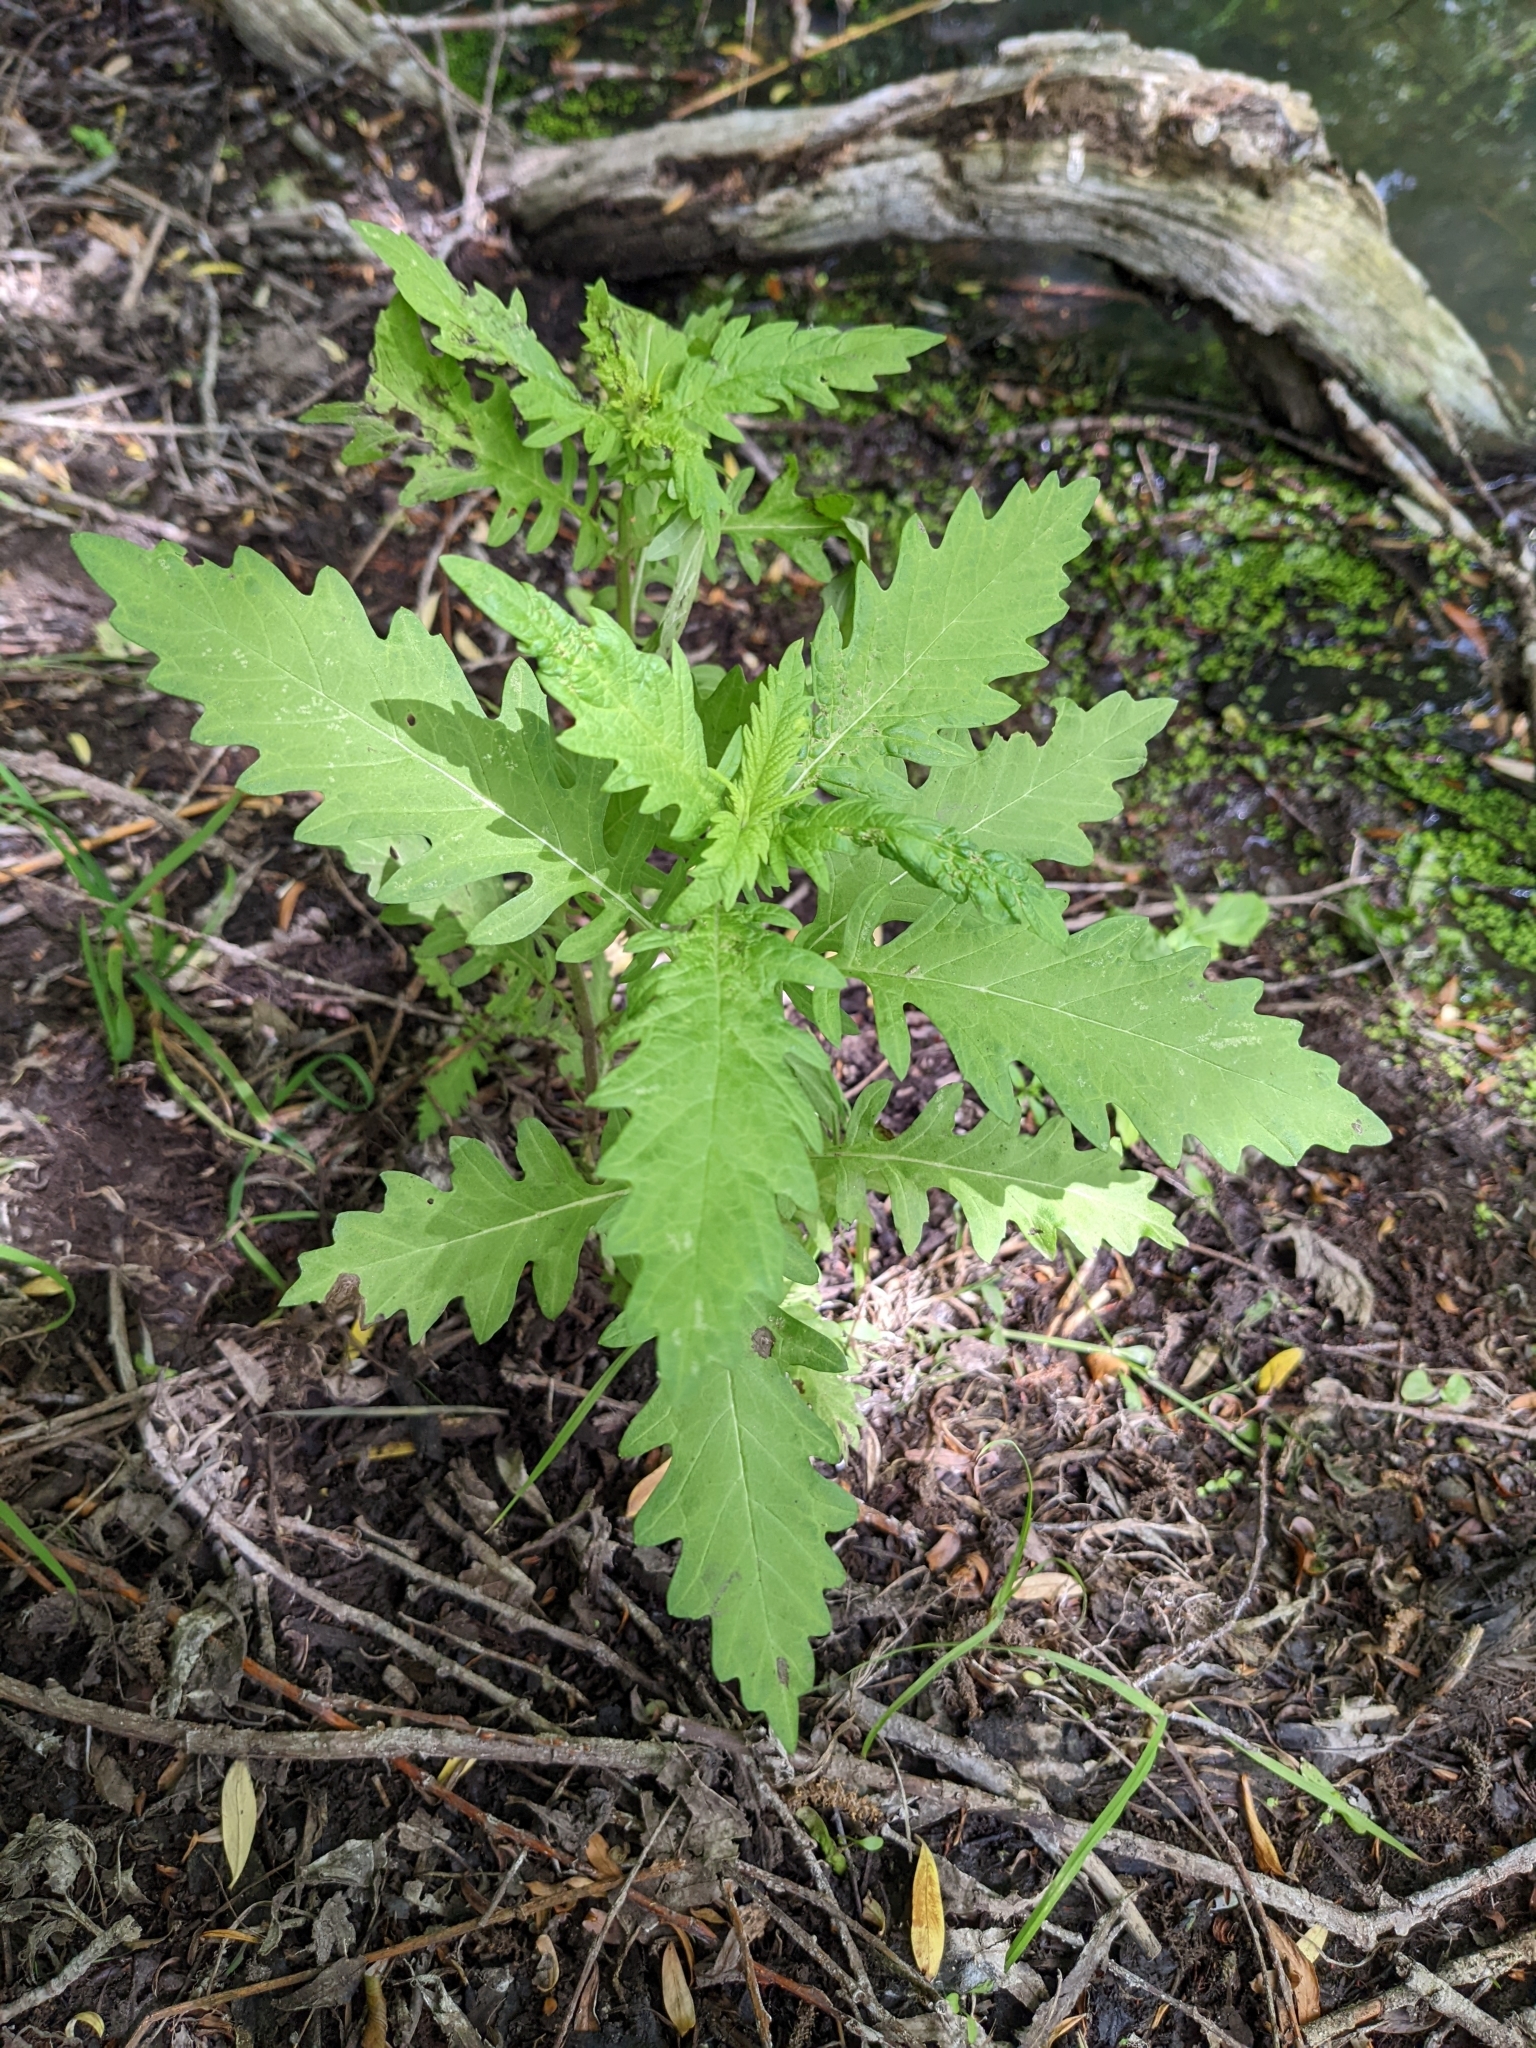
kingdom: Plantae
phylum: Tracheophyta
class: Magnoliopsida
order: Lamiales
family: Lamiaceae
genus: Lycopus
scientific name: Lycopus europaeus
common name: European bugleweed
